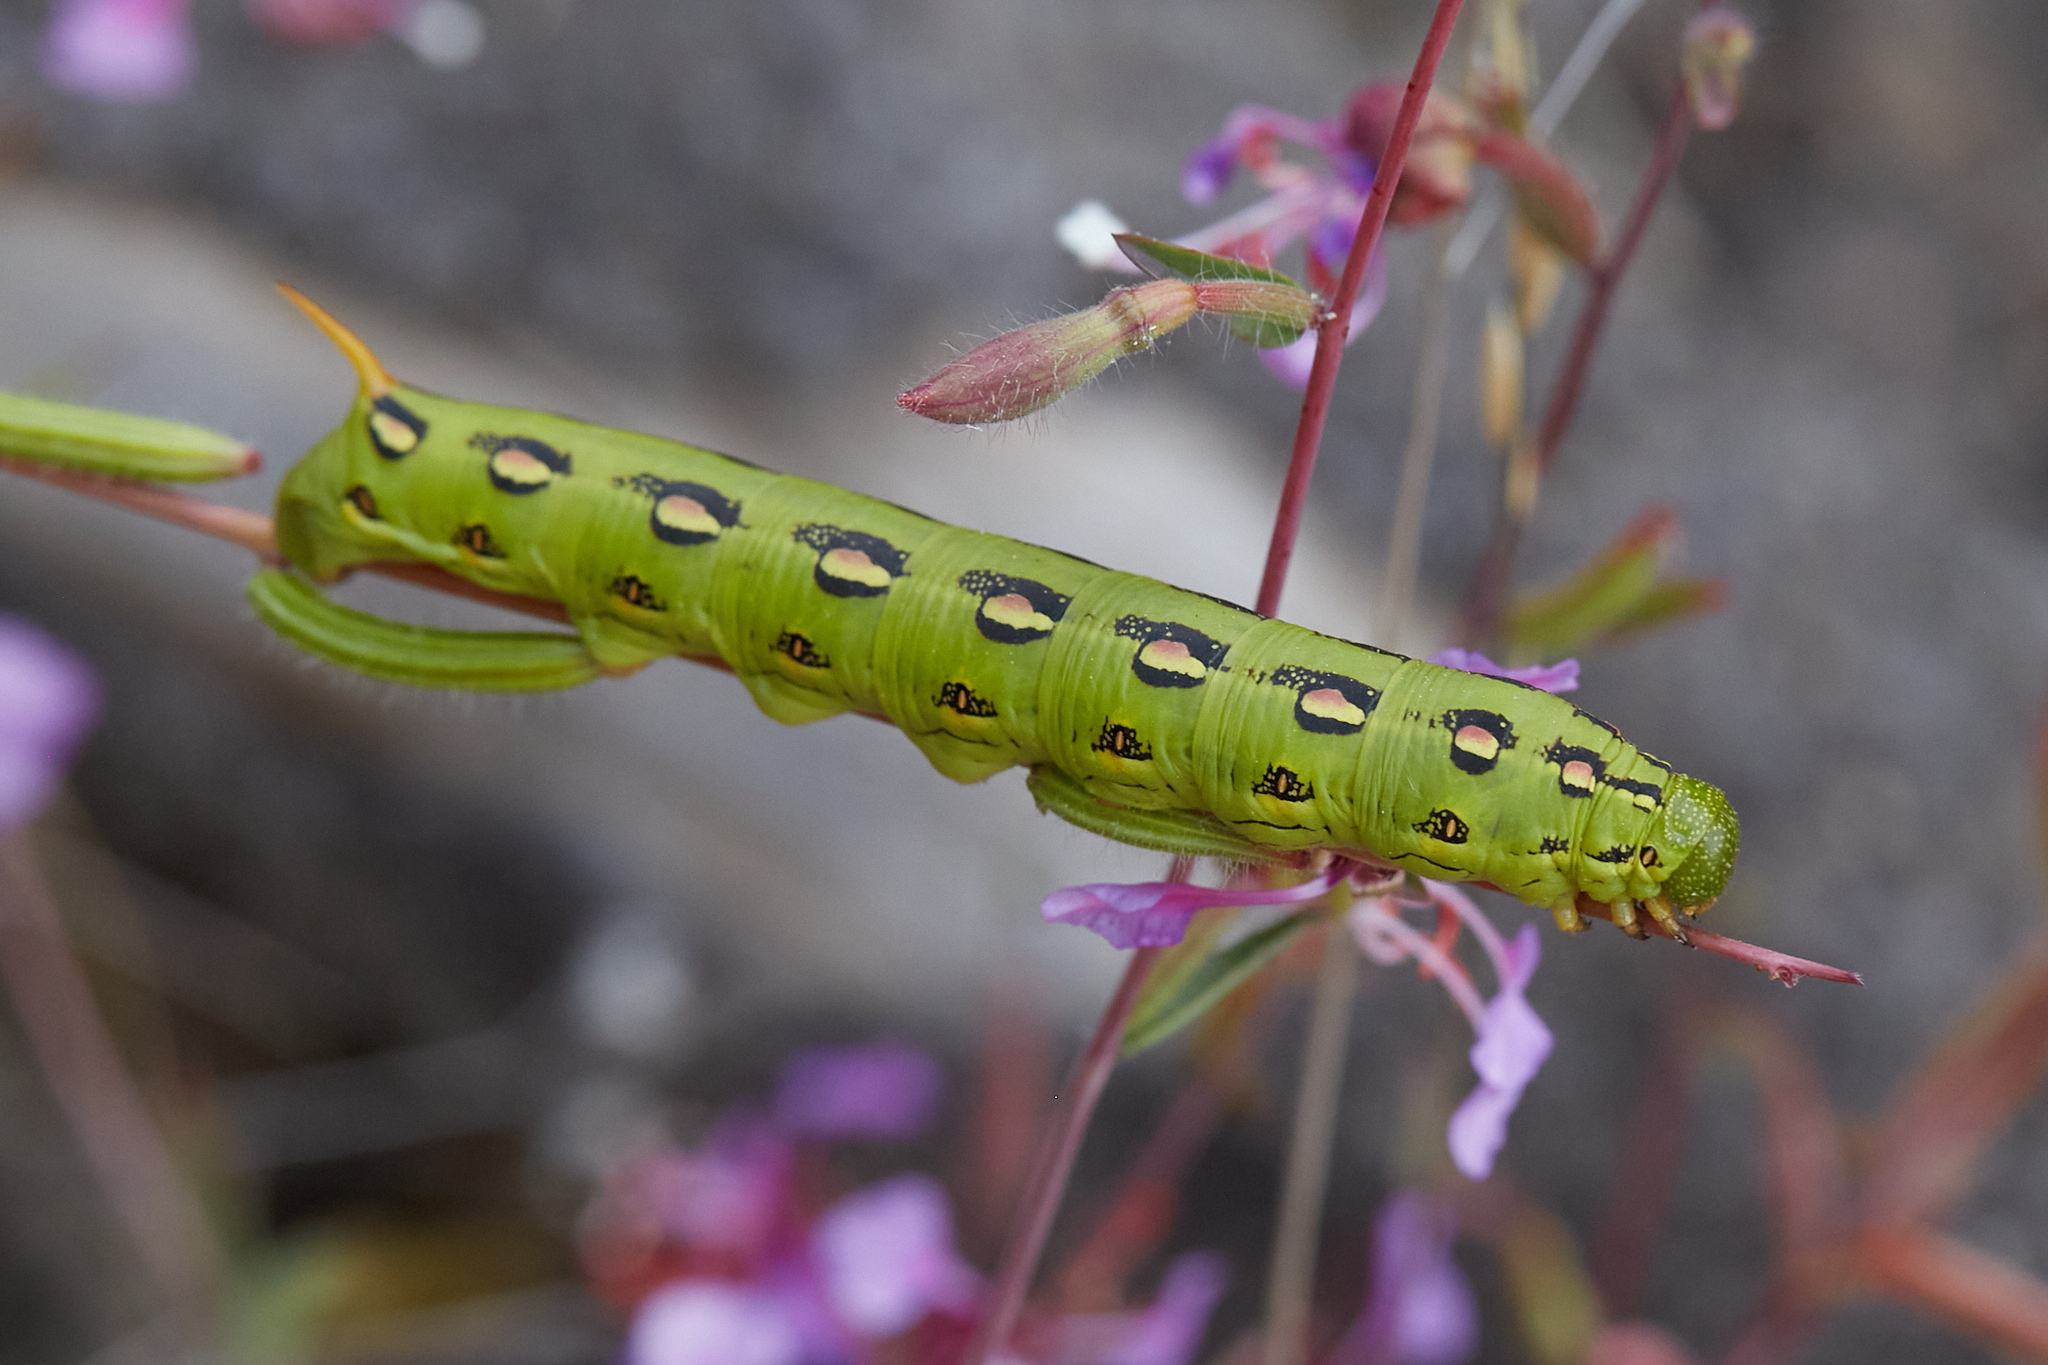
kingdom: Animalia
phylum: Arthropoda
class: Insecta
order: Lepidoptera
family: Sphingidae
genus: Hyles
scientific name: Hyles lineata
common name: White-lined sphinx
